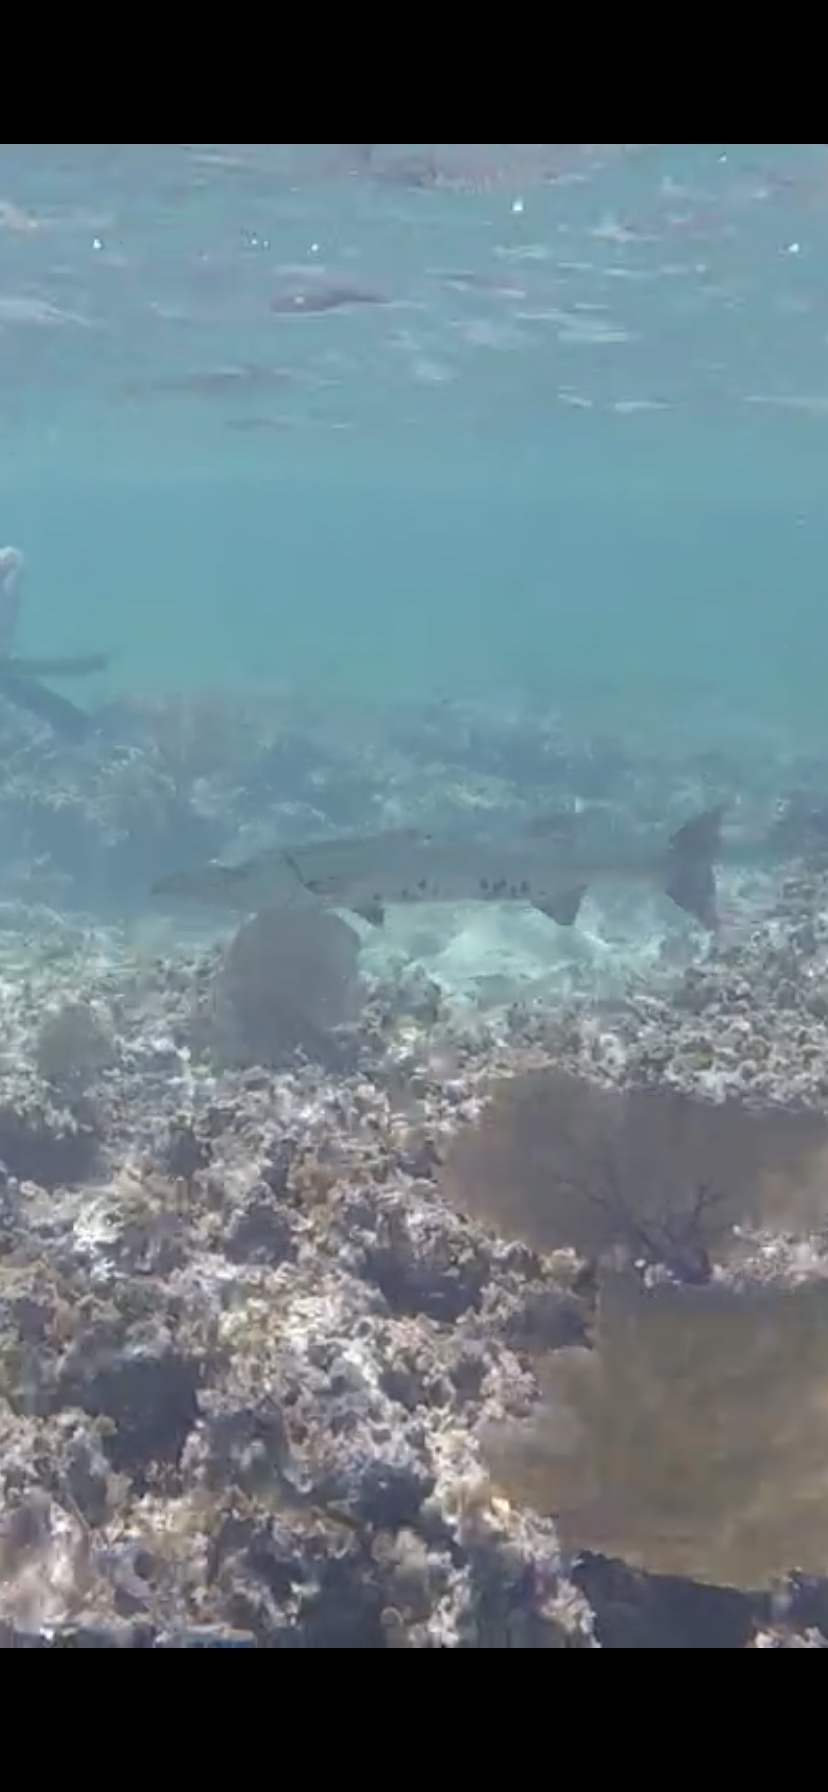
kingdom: Animalia
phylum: Chordata
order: Perciformes
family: Sphyraenidae
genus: Sphyraena
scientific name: Sphyraena barracuda
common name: Great barracuda
